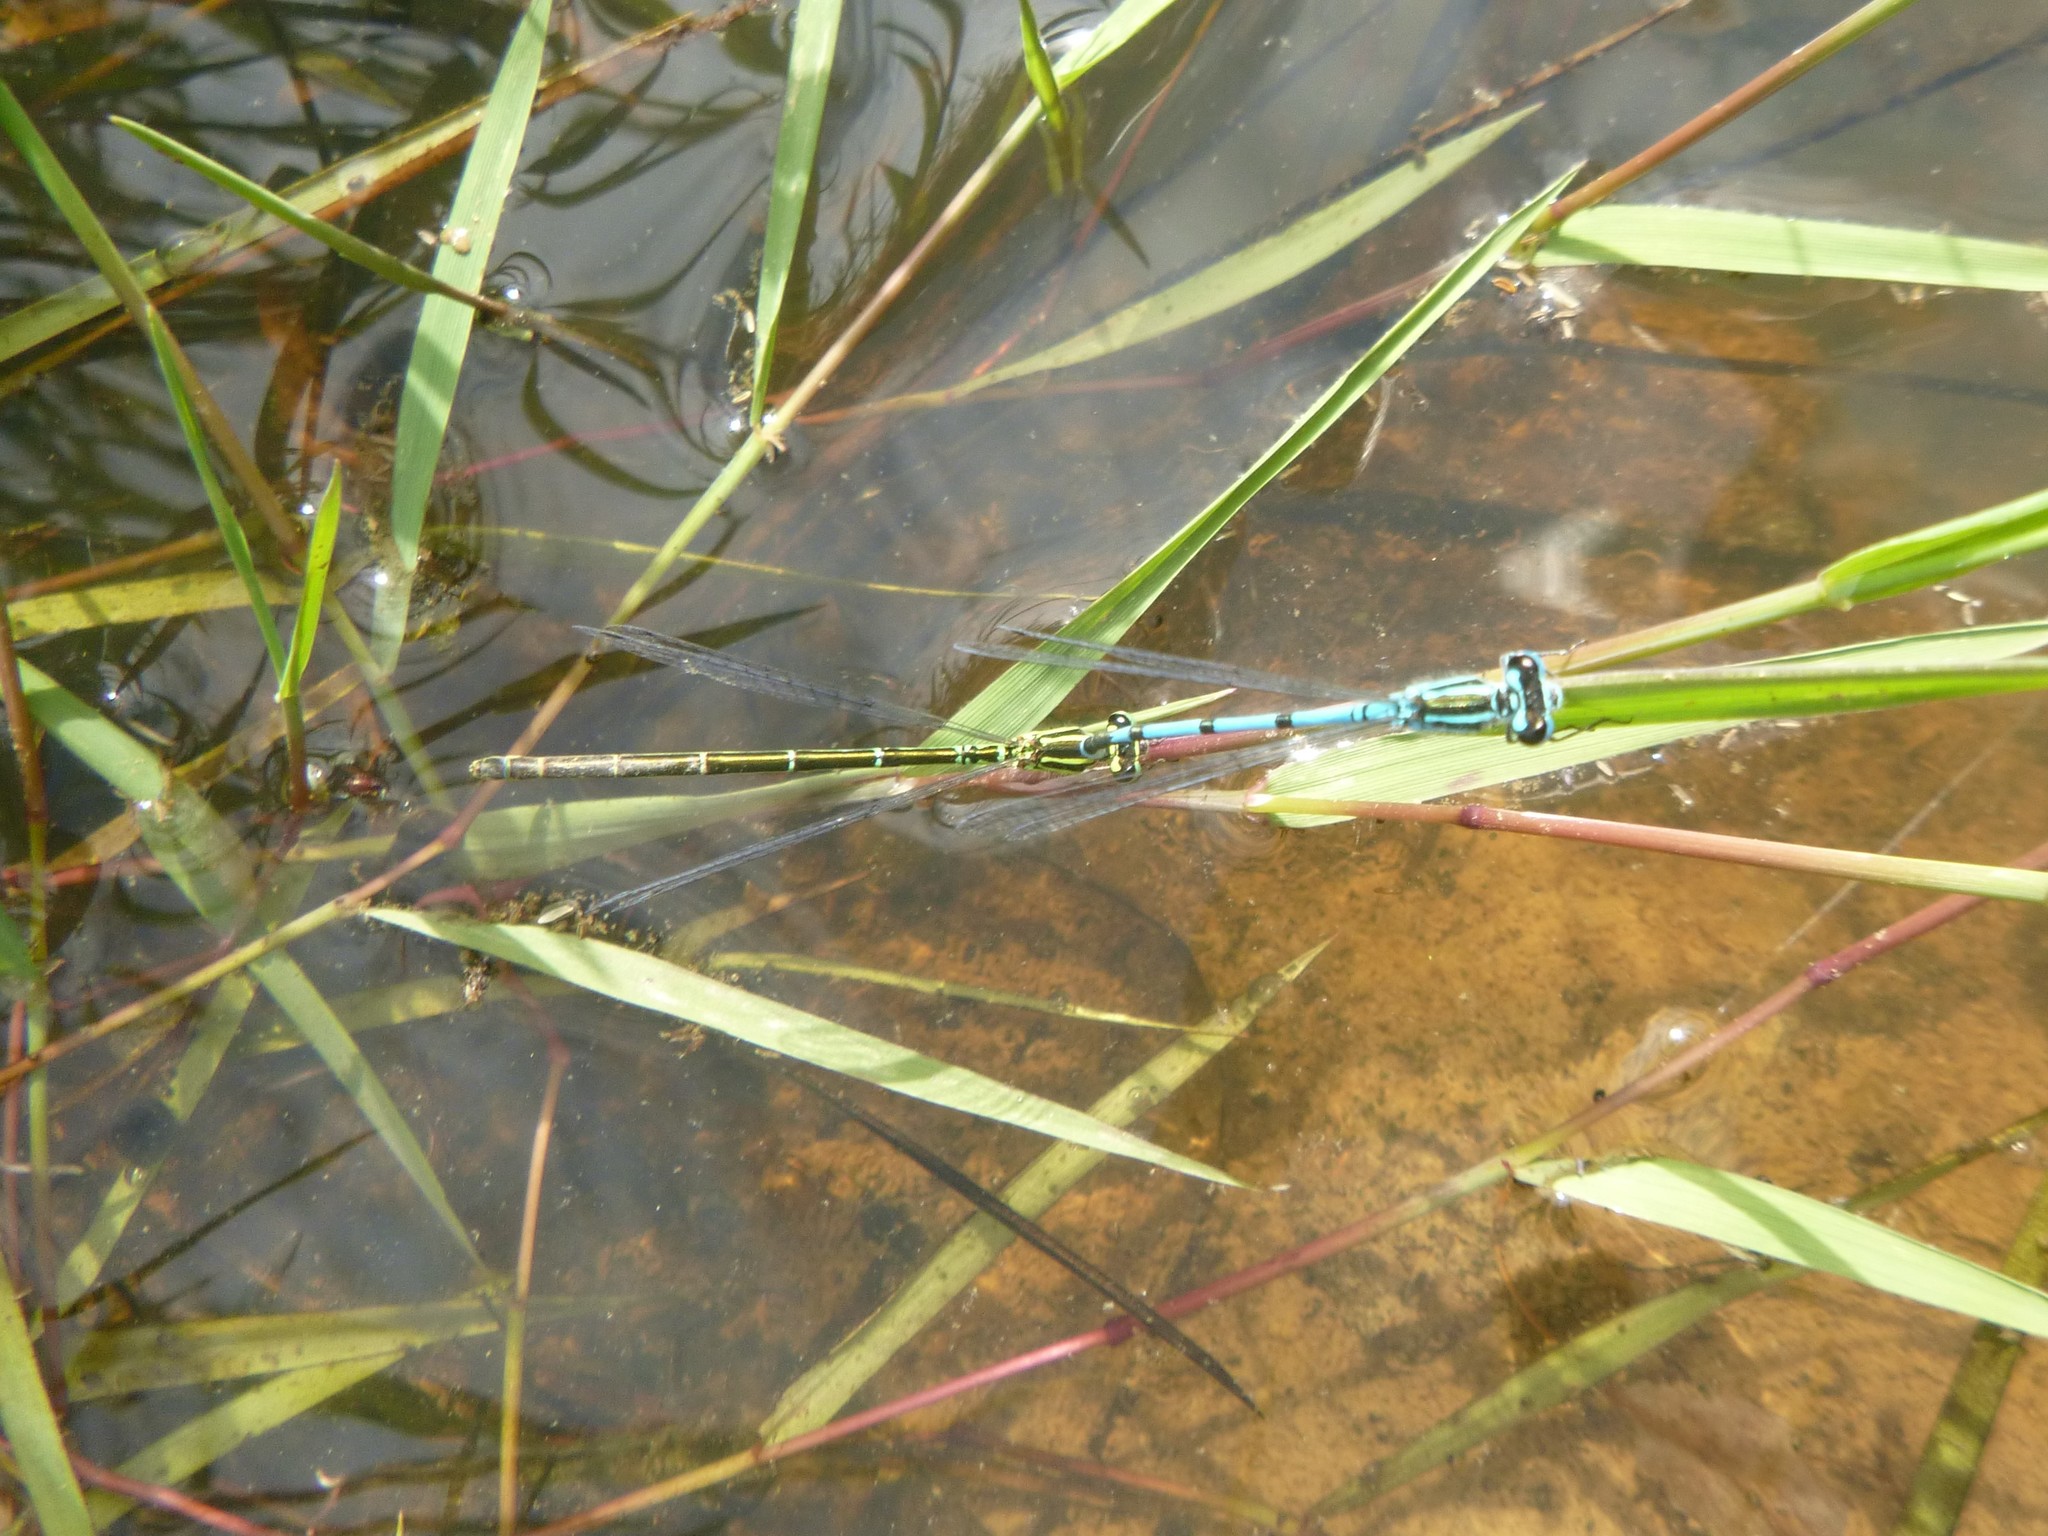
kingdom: Animalia
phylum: Arthropoda
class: Insecta
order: Odonata
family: Coenagrionidae
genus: Coenagrion
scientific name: Coenagrion puella
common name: Azure damselfly
